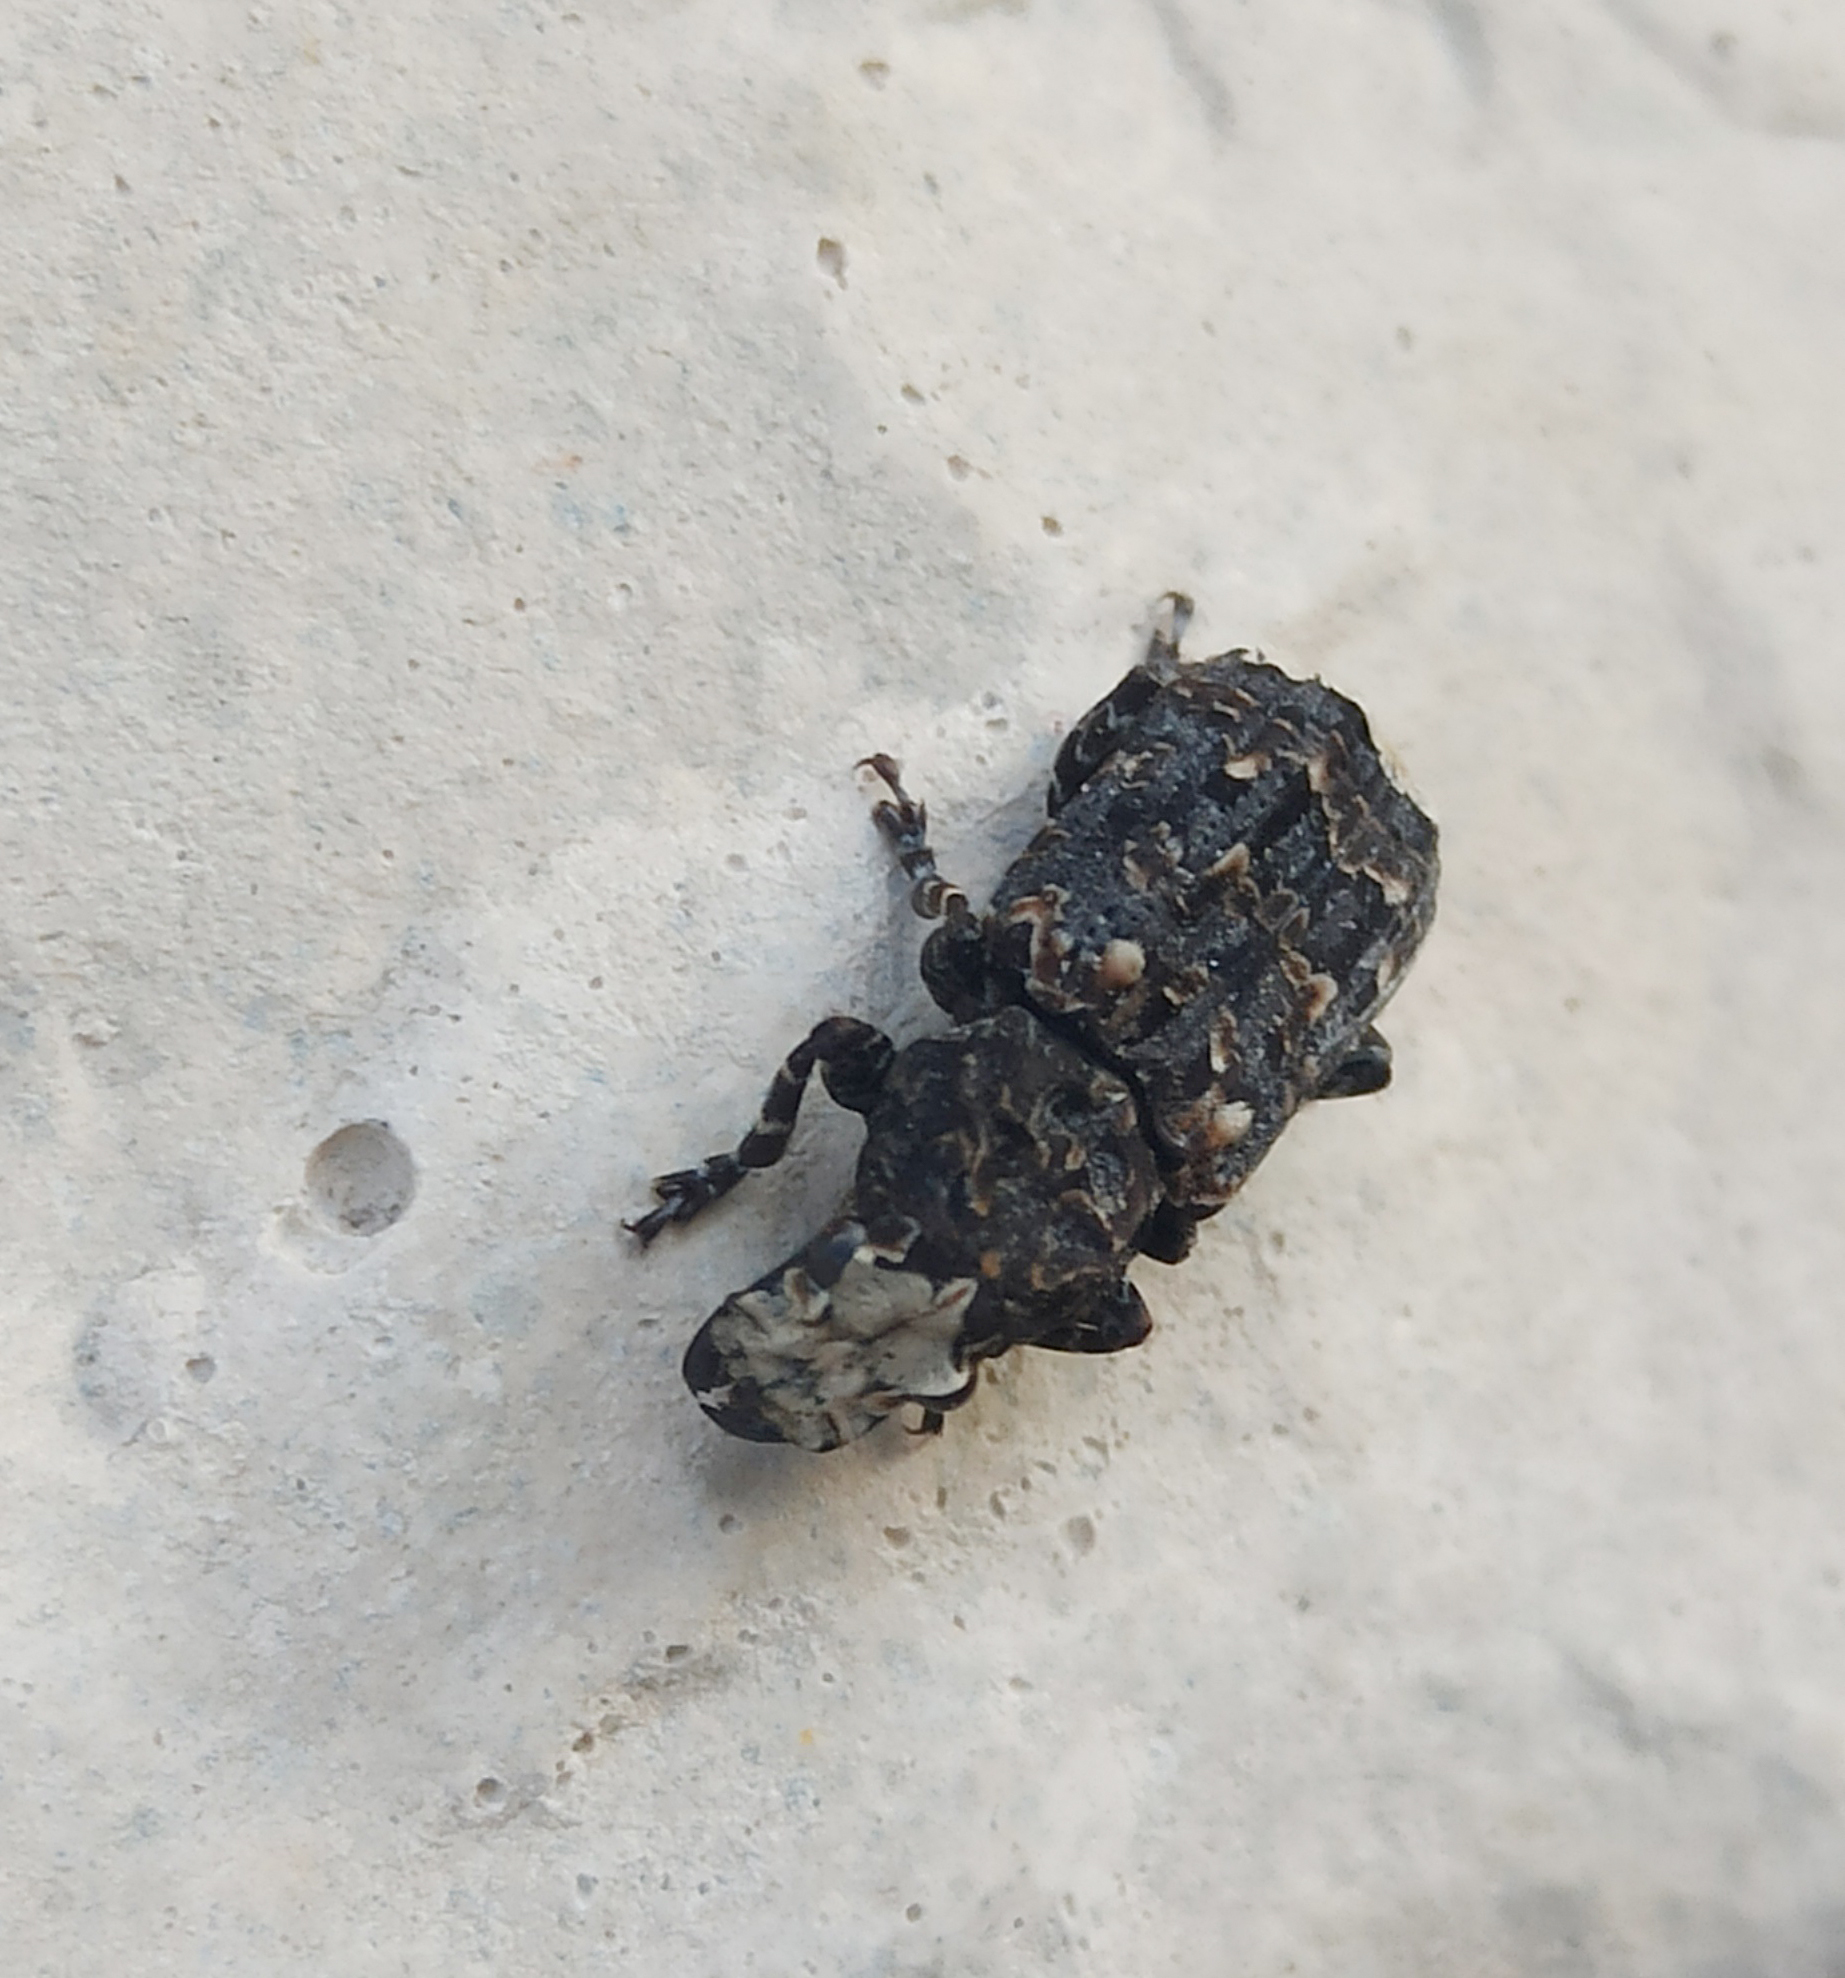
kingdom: Animalia
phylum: Arthropoda
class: Insecta
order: Coleoptera
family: Anthribidae
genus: Platyrhinus
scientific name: Platyrhinus resinosus
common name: Cramp-ball fungus weevil
